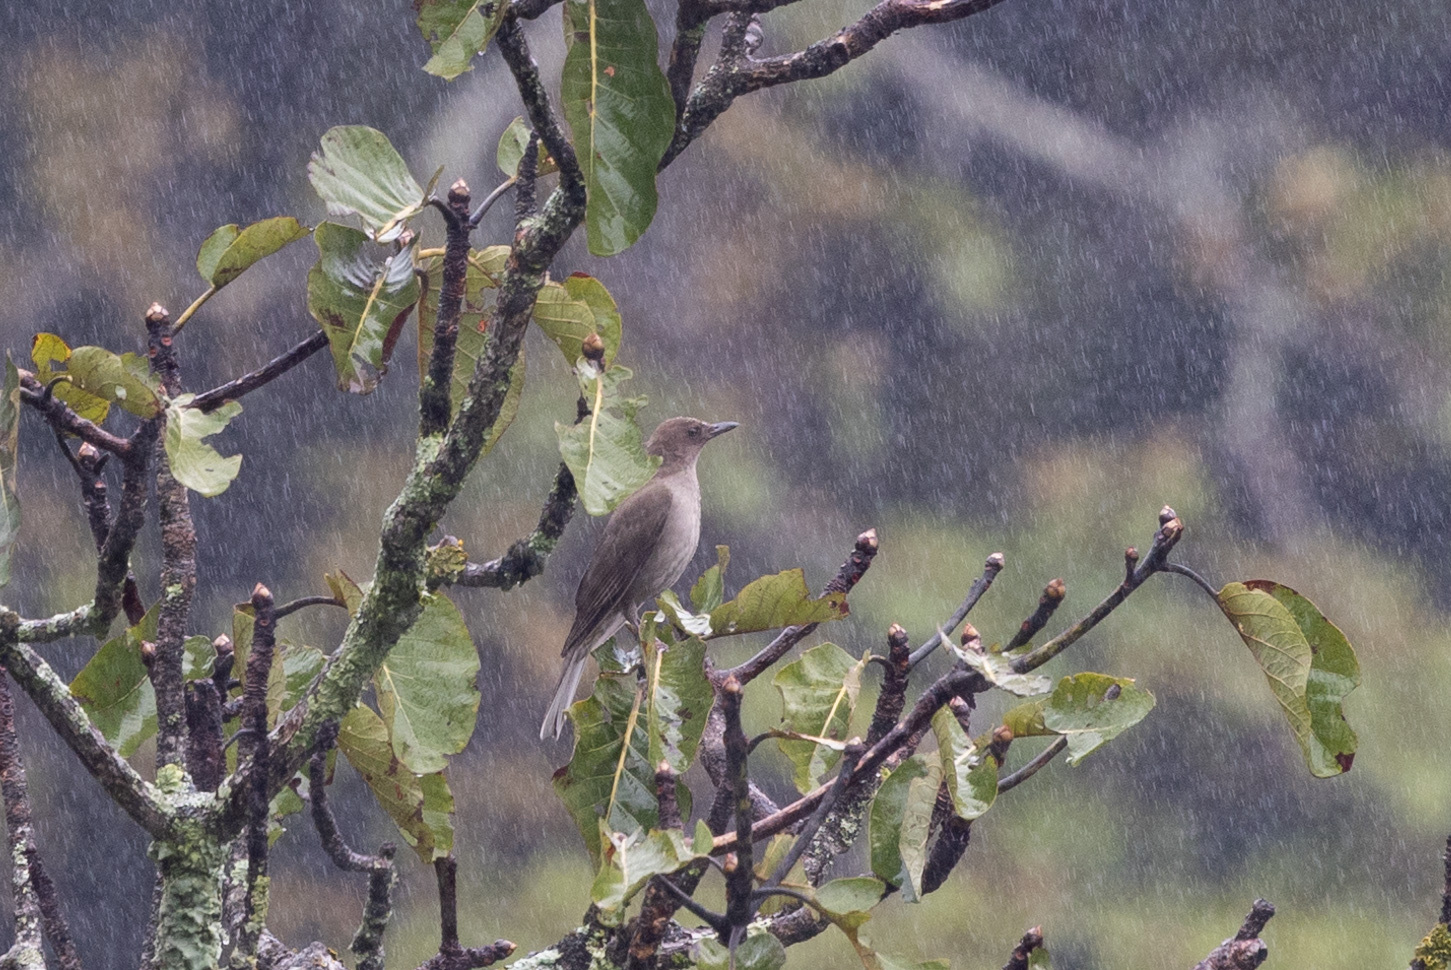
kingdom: Animalia
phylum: Chordata
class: Aves
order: Passeriformes
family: Turdidae
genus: Turdus
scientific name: Turdus plebejus
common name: Mountain thrush
